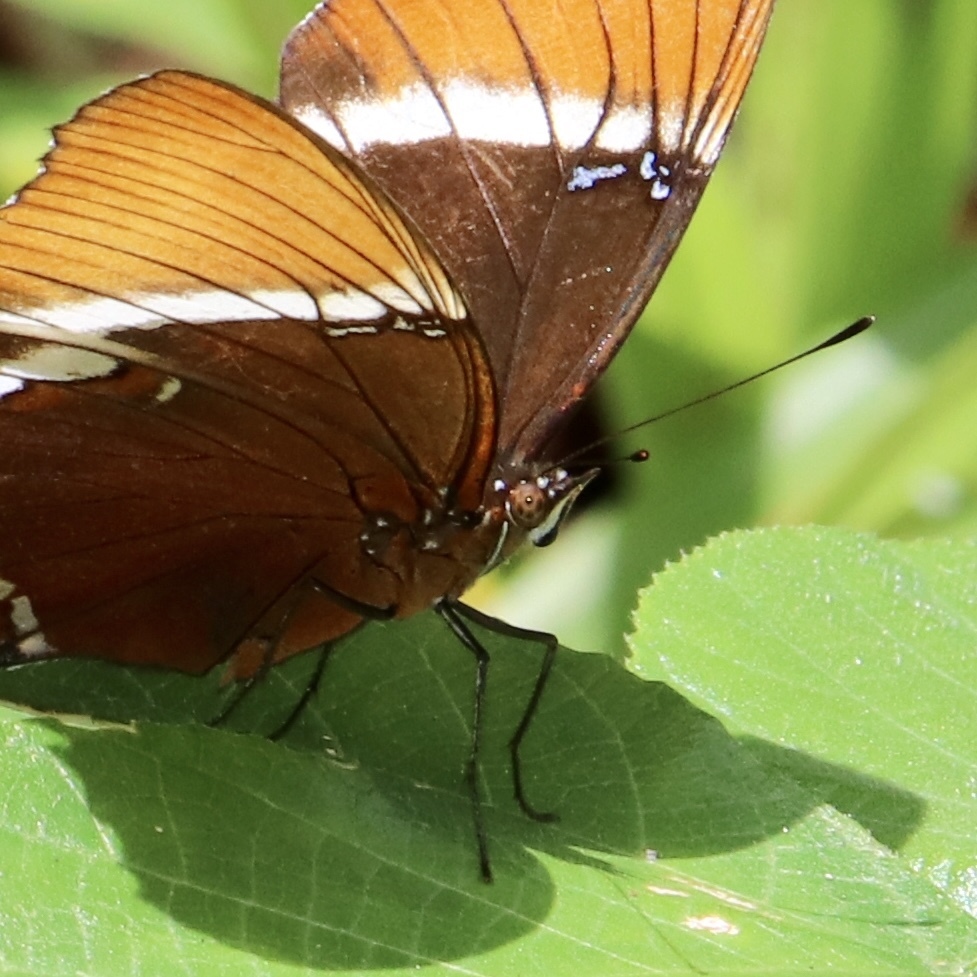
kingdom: Animalia
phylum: Arthropoda
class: Insecta
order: Lepidoptera
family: Nymphalidae
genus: Siproeta
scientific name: Siproeta epaphus
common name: Rusty-tipped page
